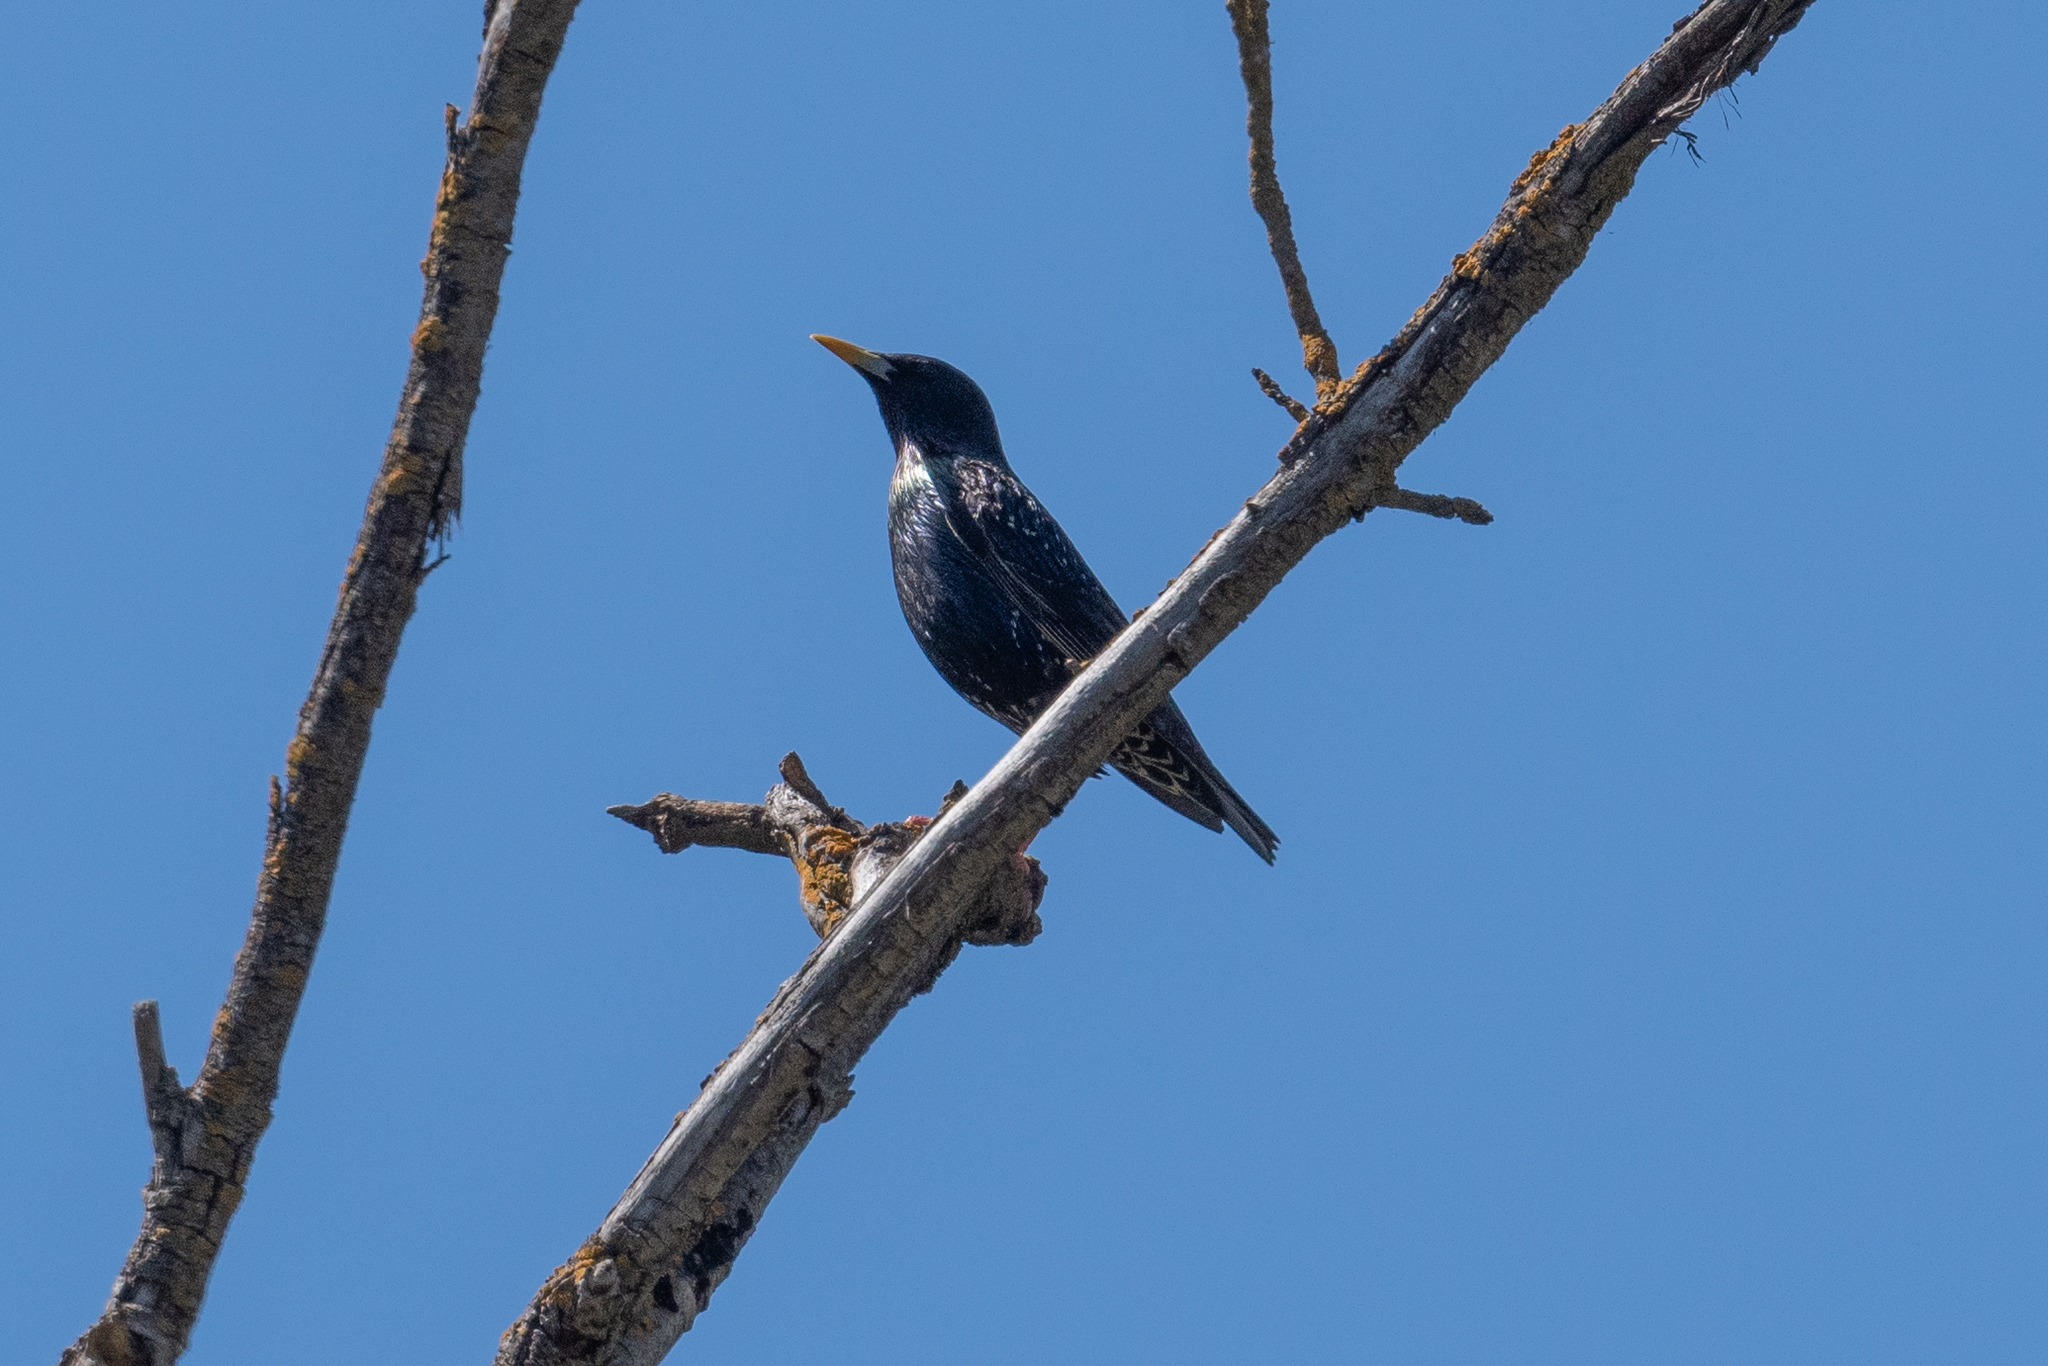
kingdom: Animalia
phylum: Chordata
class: Aves
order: Passeriformes
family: Sturnidae
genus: Sturnus
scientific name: Sturnus vulgaris
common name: Common starling
